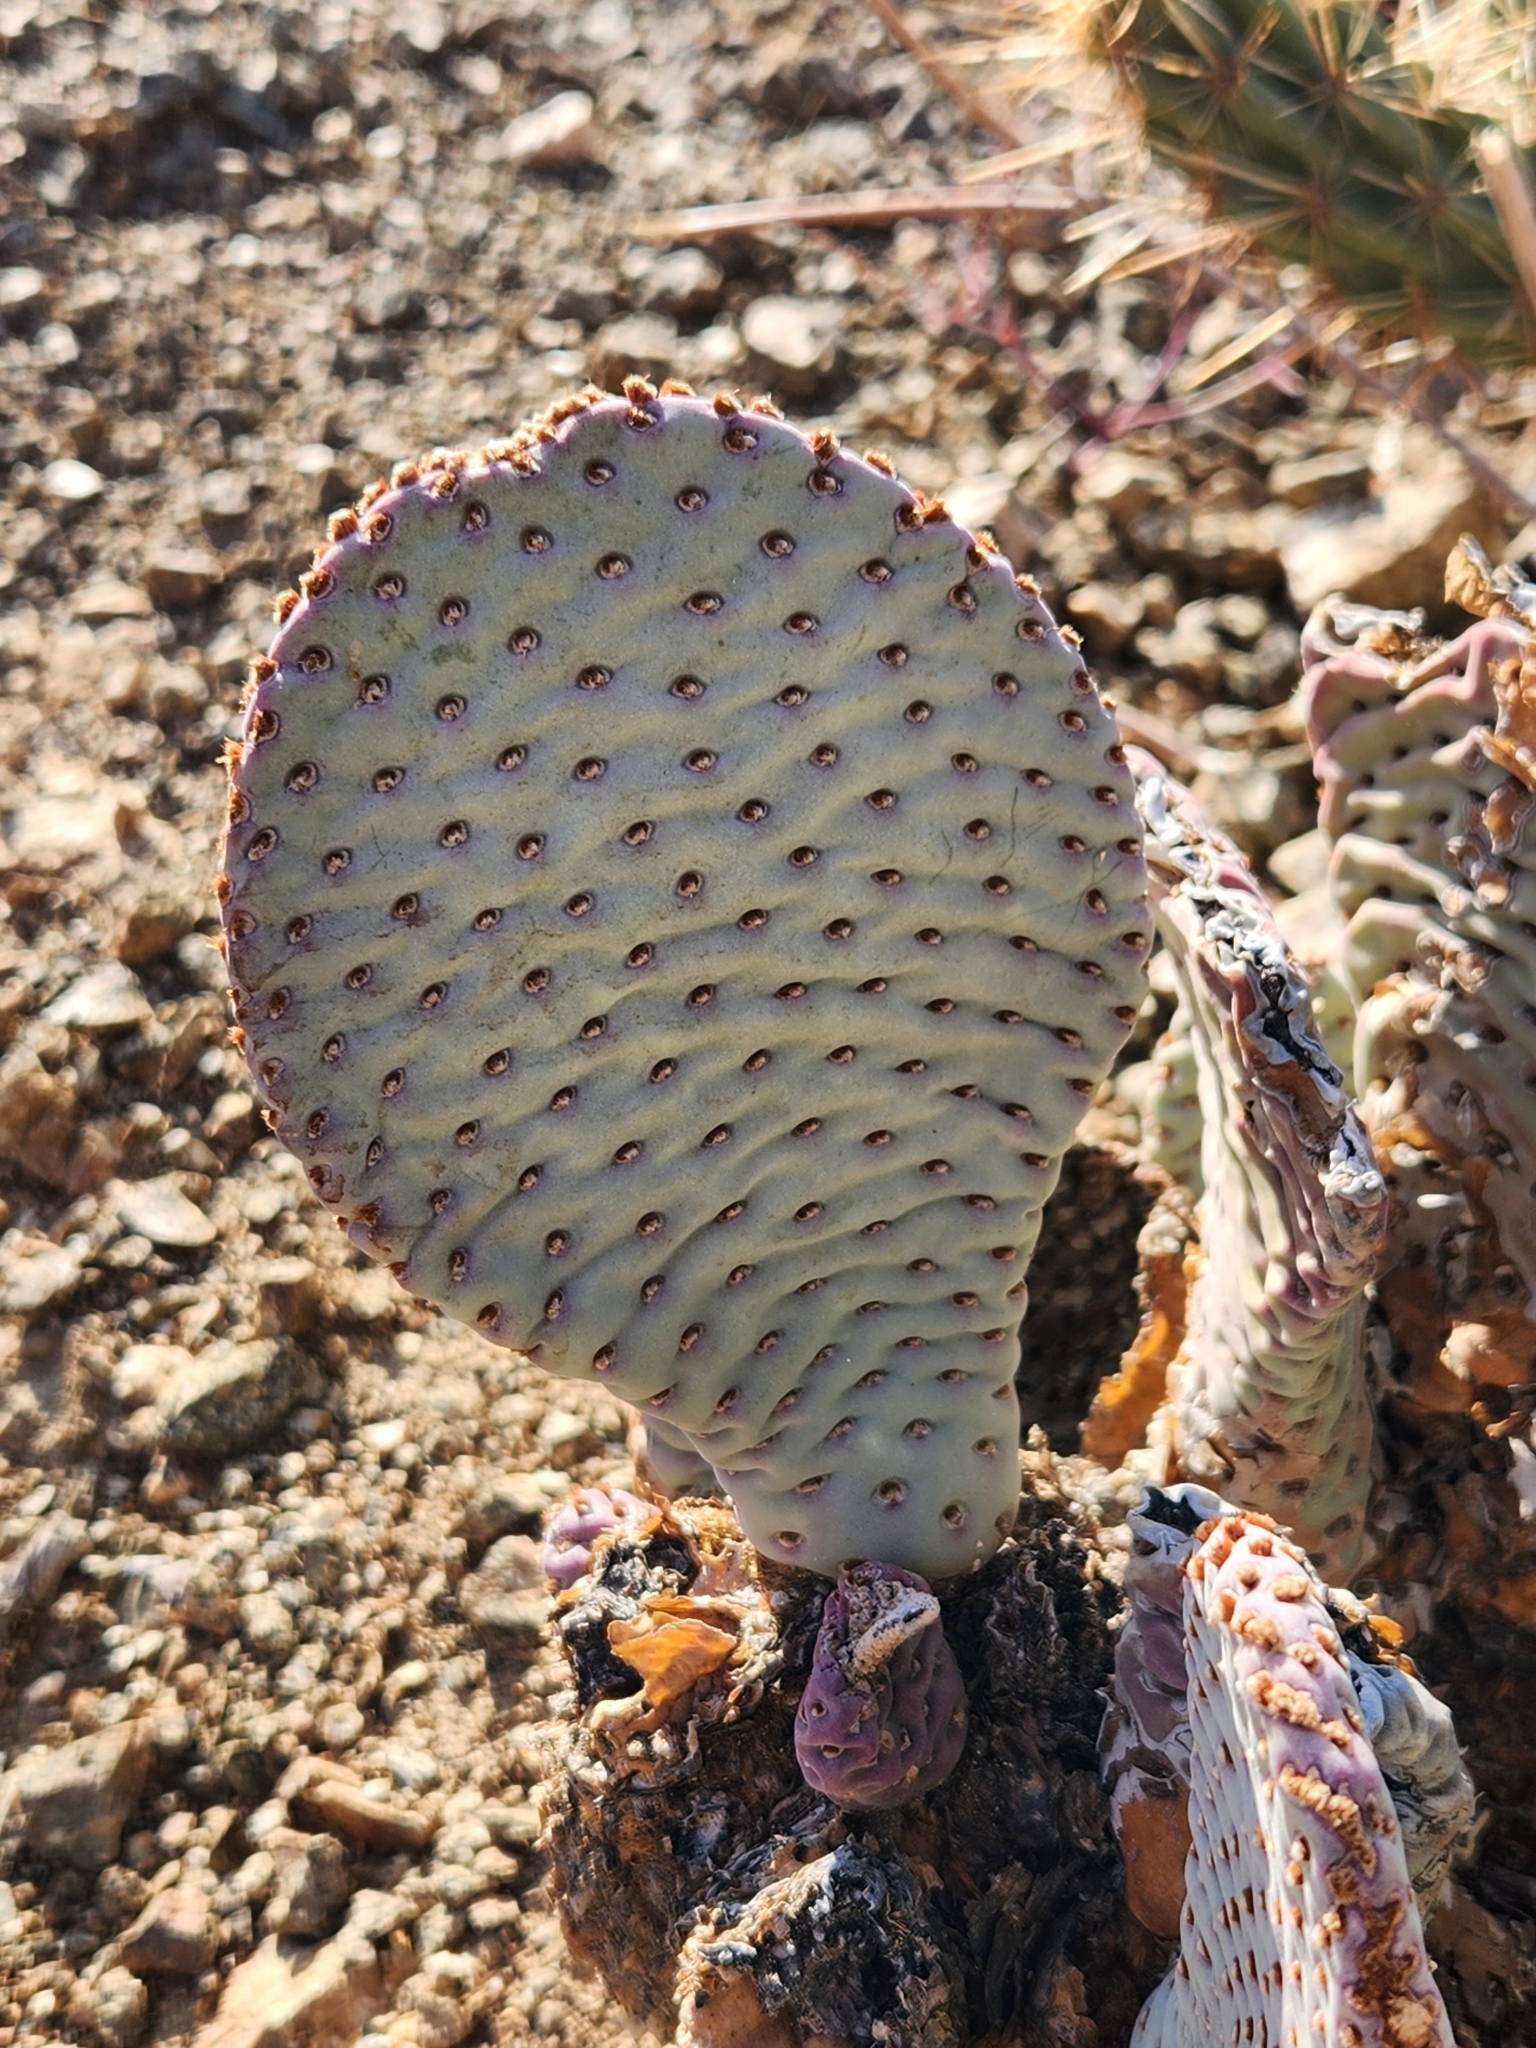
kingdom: Plantae
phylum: Tracheophyta
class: Magnoliopsida
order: Caryophyllales
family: Cactaceae
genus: Opuntia
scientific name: Opuntia basilaris
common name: Beavertail prickly-pear
